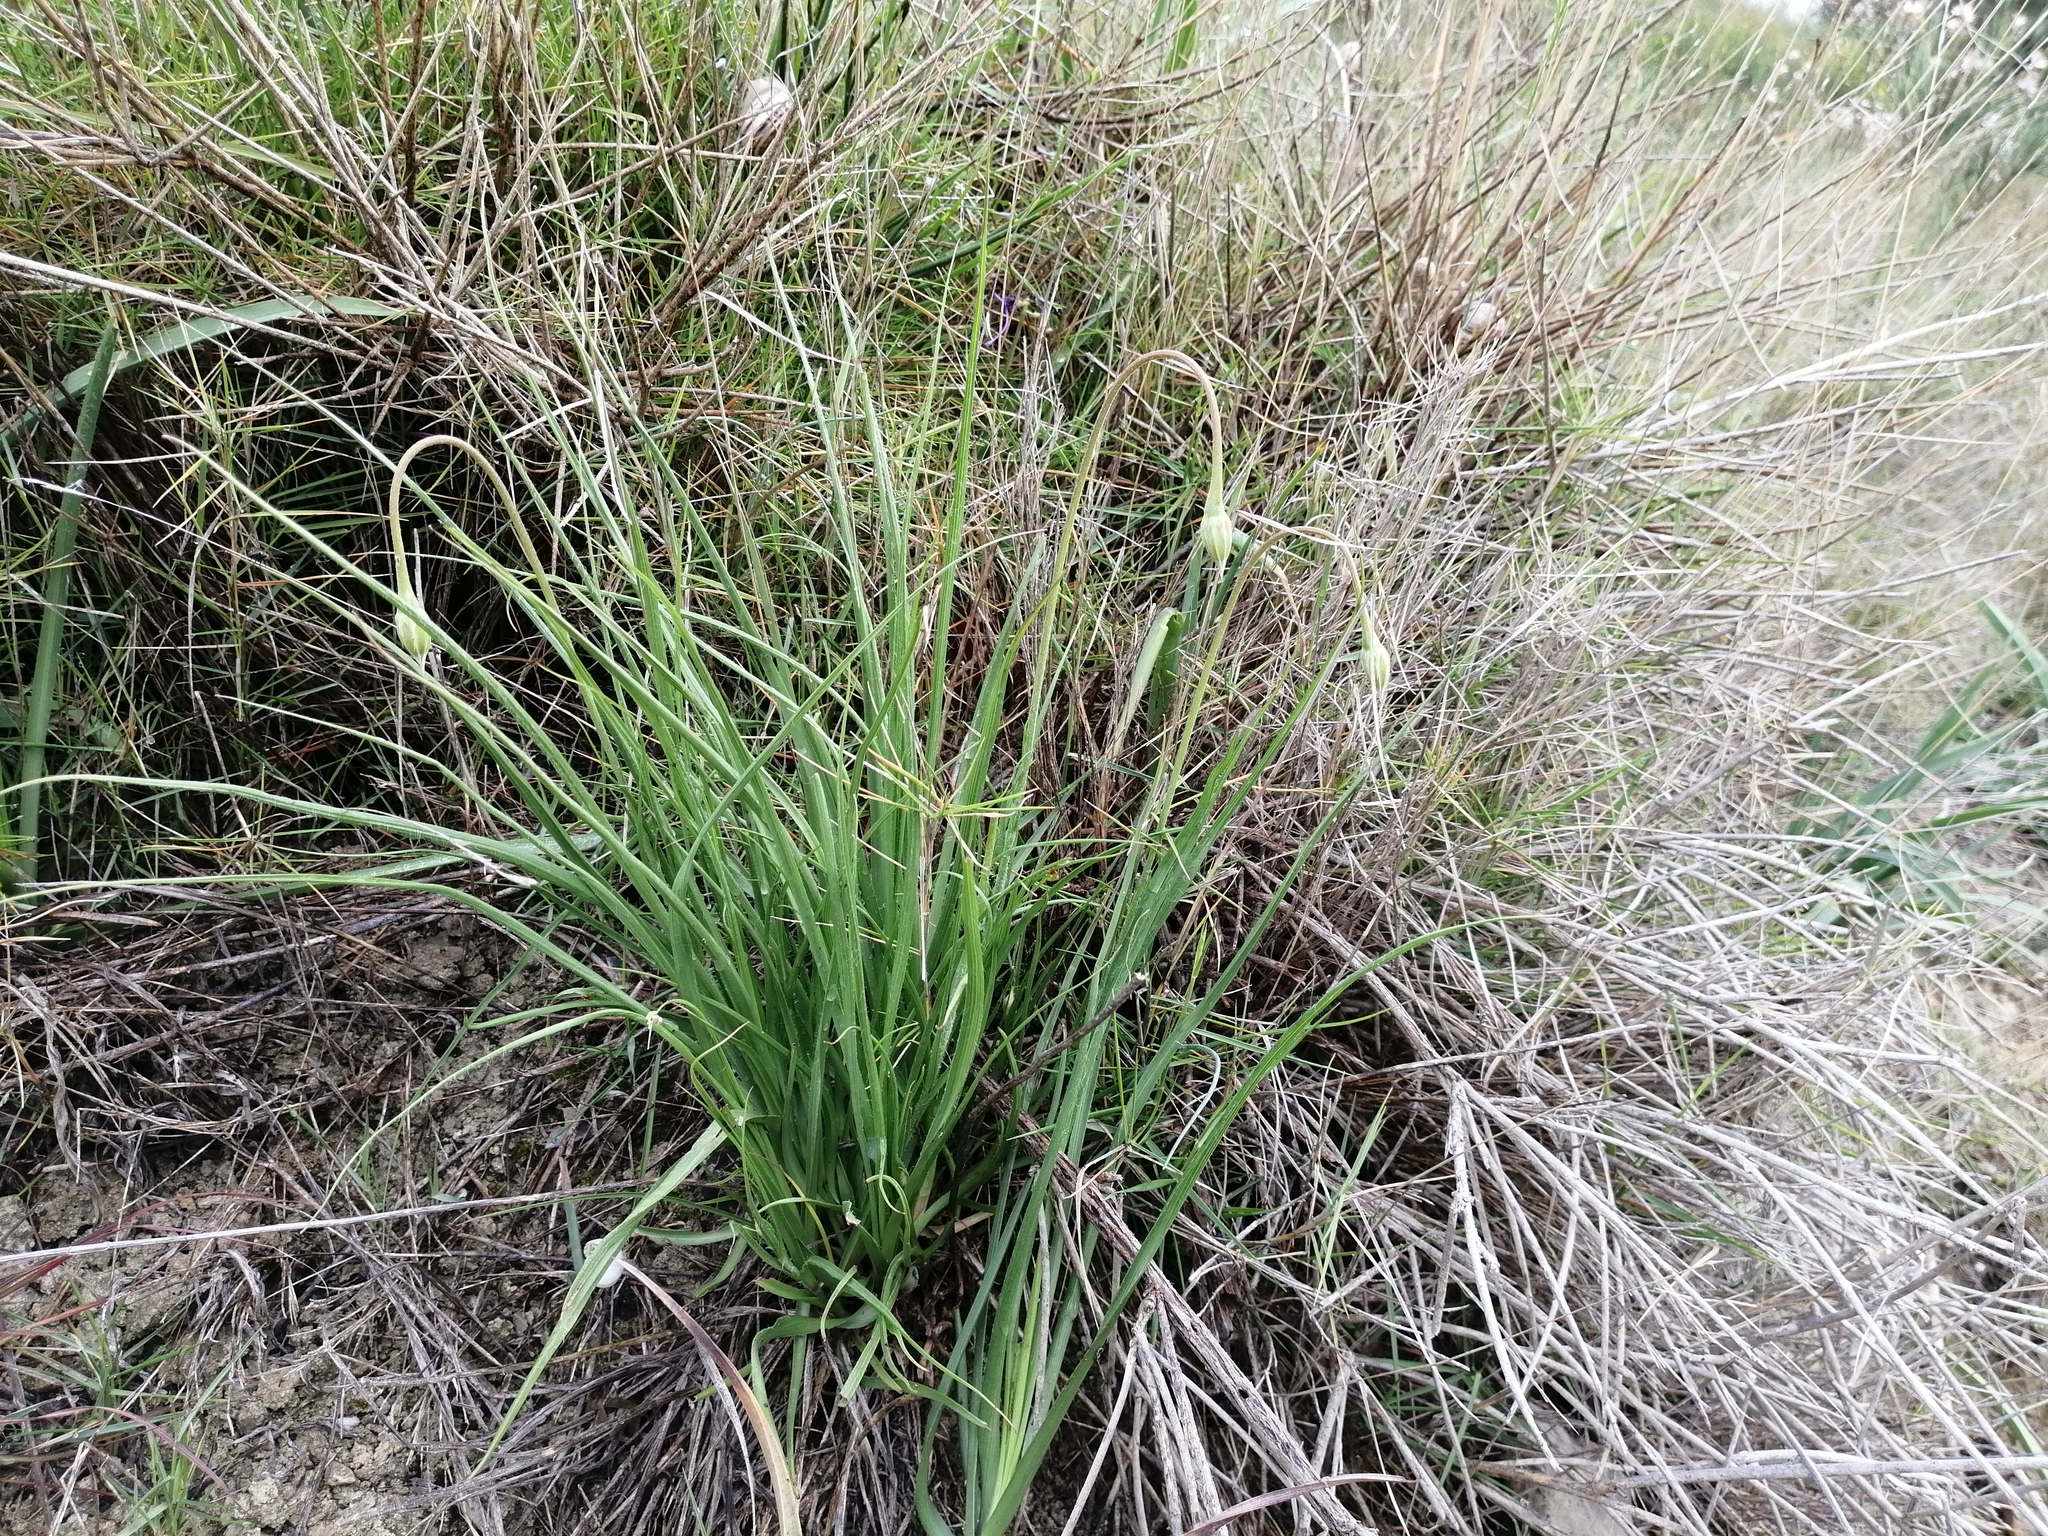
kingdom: Plantae
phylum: Tracheophyta
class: Magnoliopsida
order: Asterales
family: Asteraceae
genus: Gelasia
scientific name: Gelasia villosa
